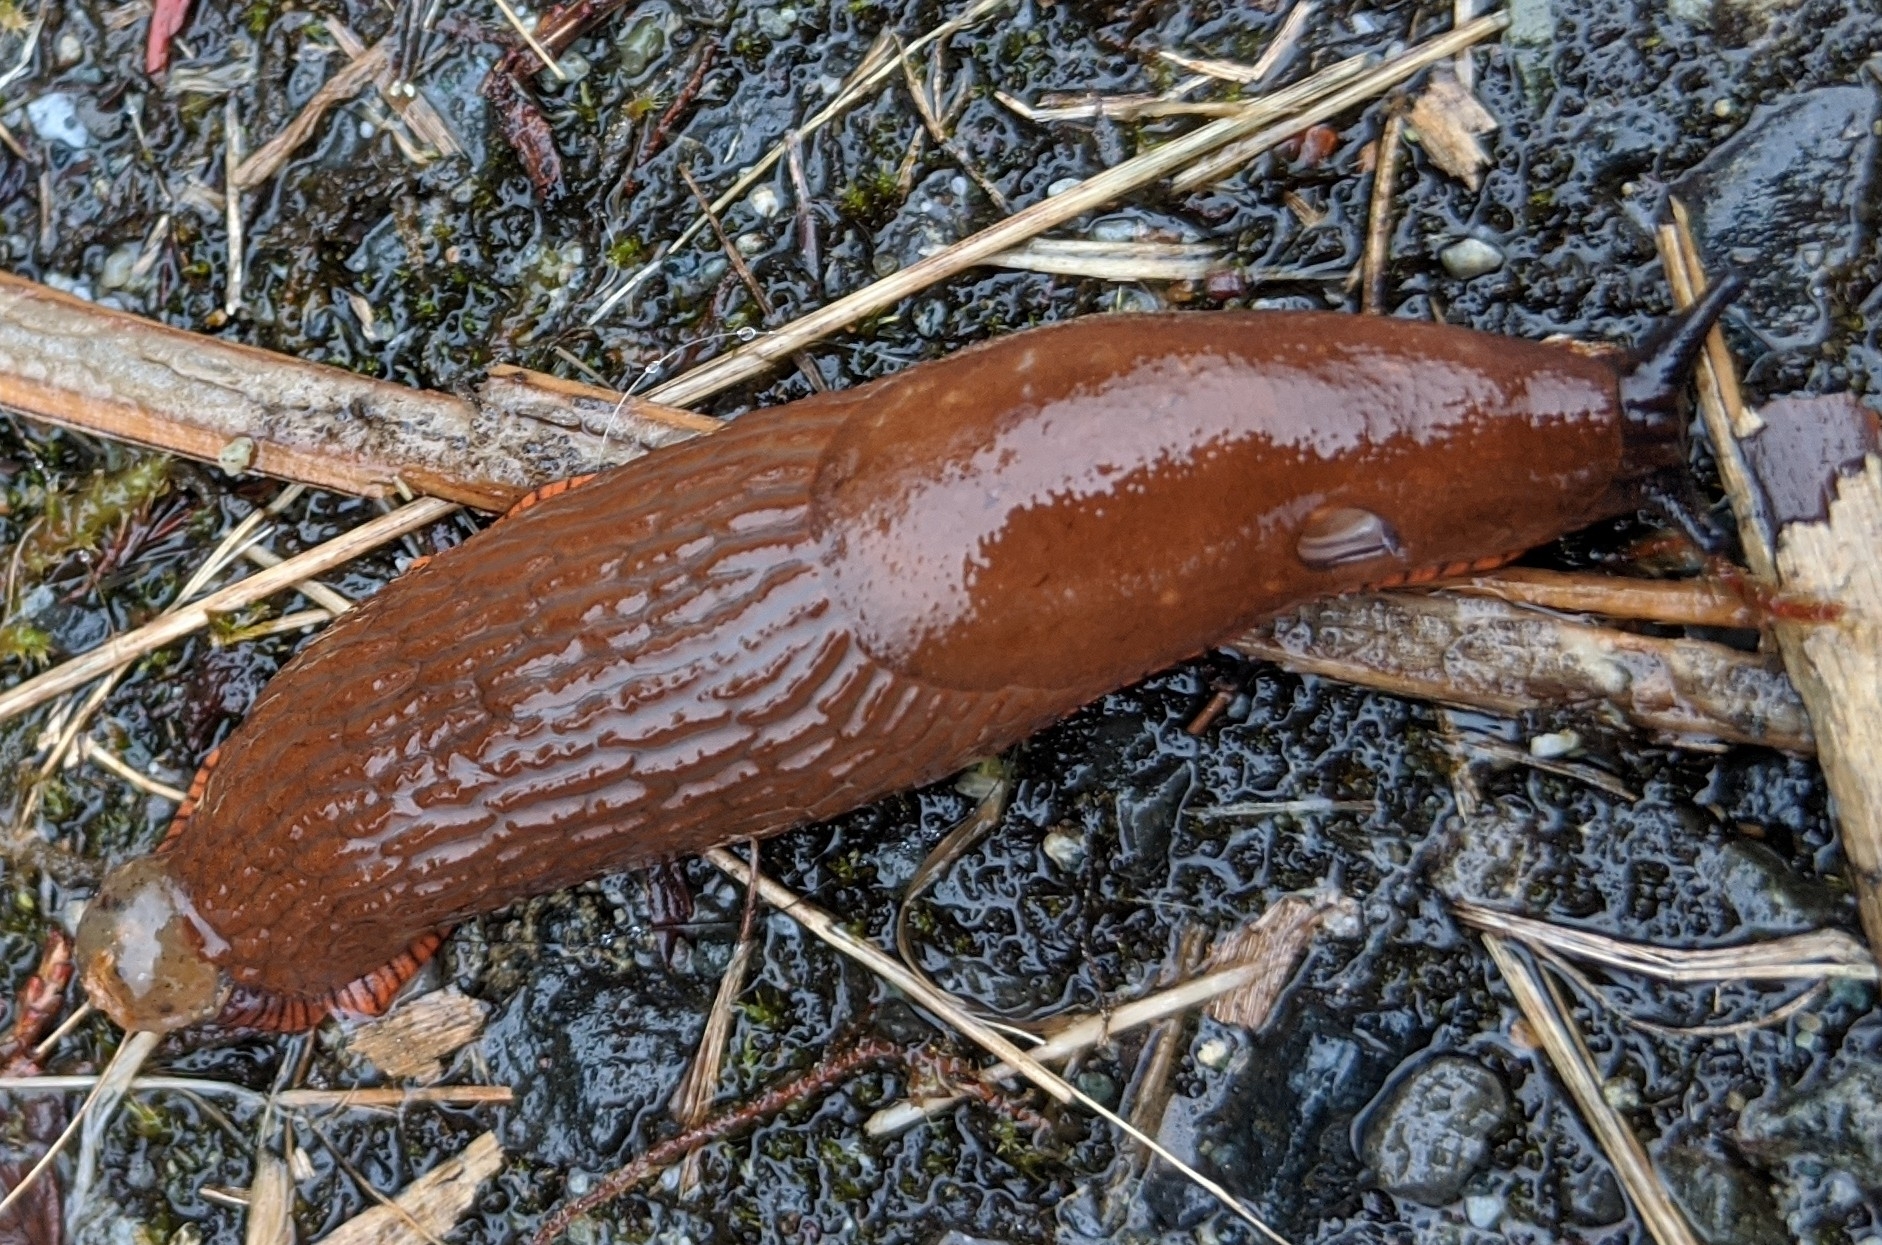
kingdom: Animalia
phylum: Mollusca
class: Gastropoda
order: Stylommatophora
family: Arionidae
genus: Arion
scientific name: Arion rufus
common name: Chocolate arion
